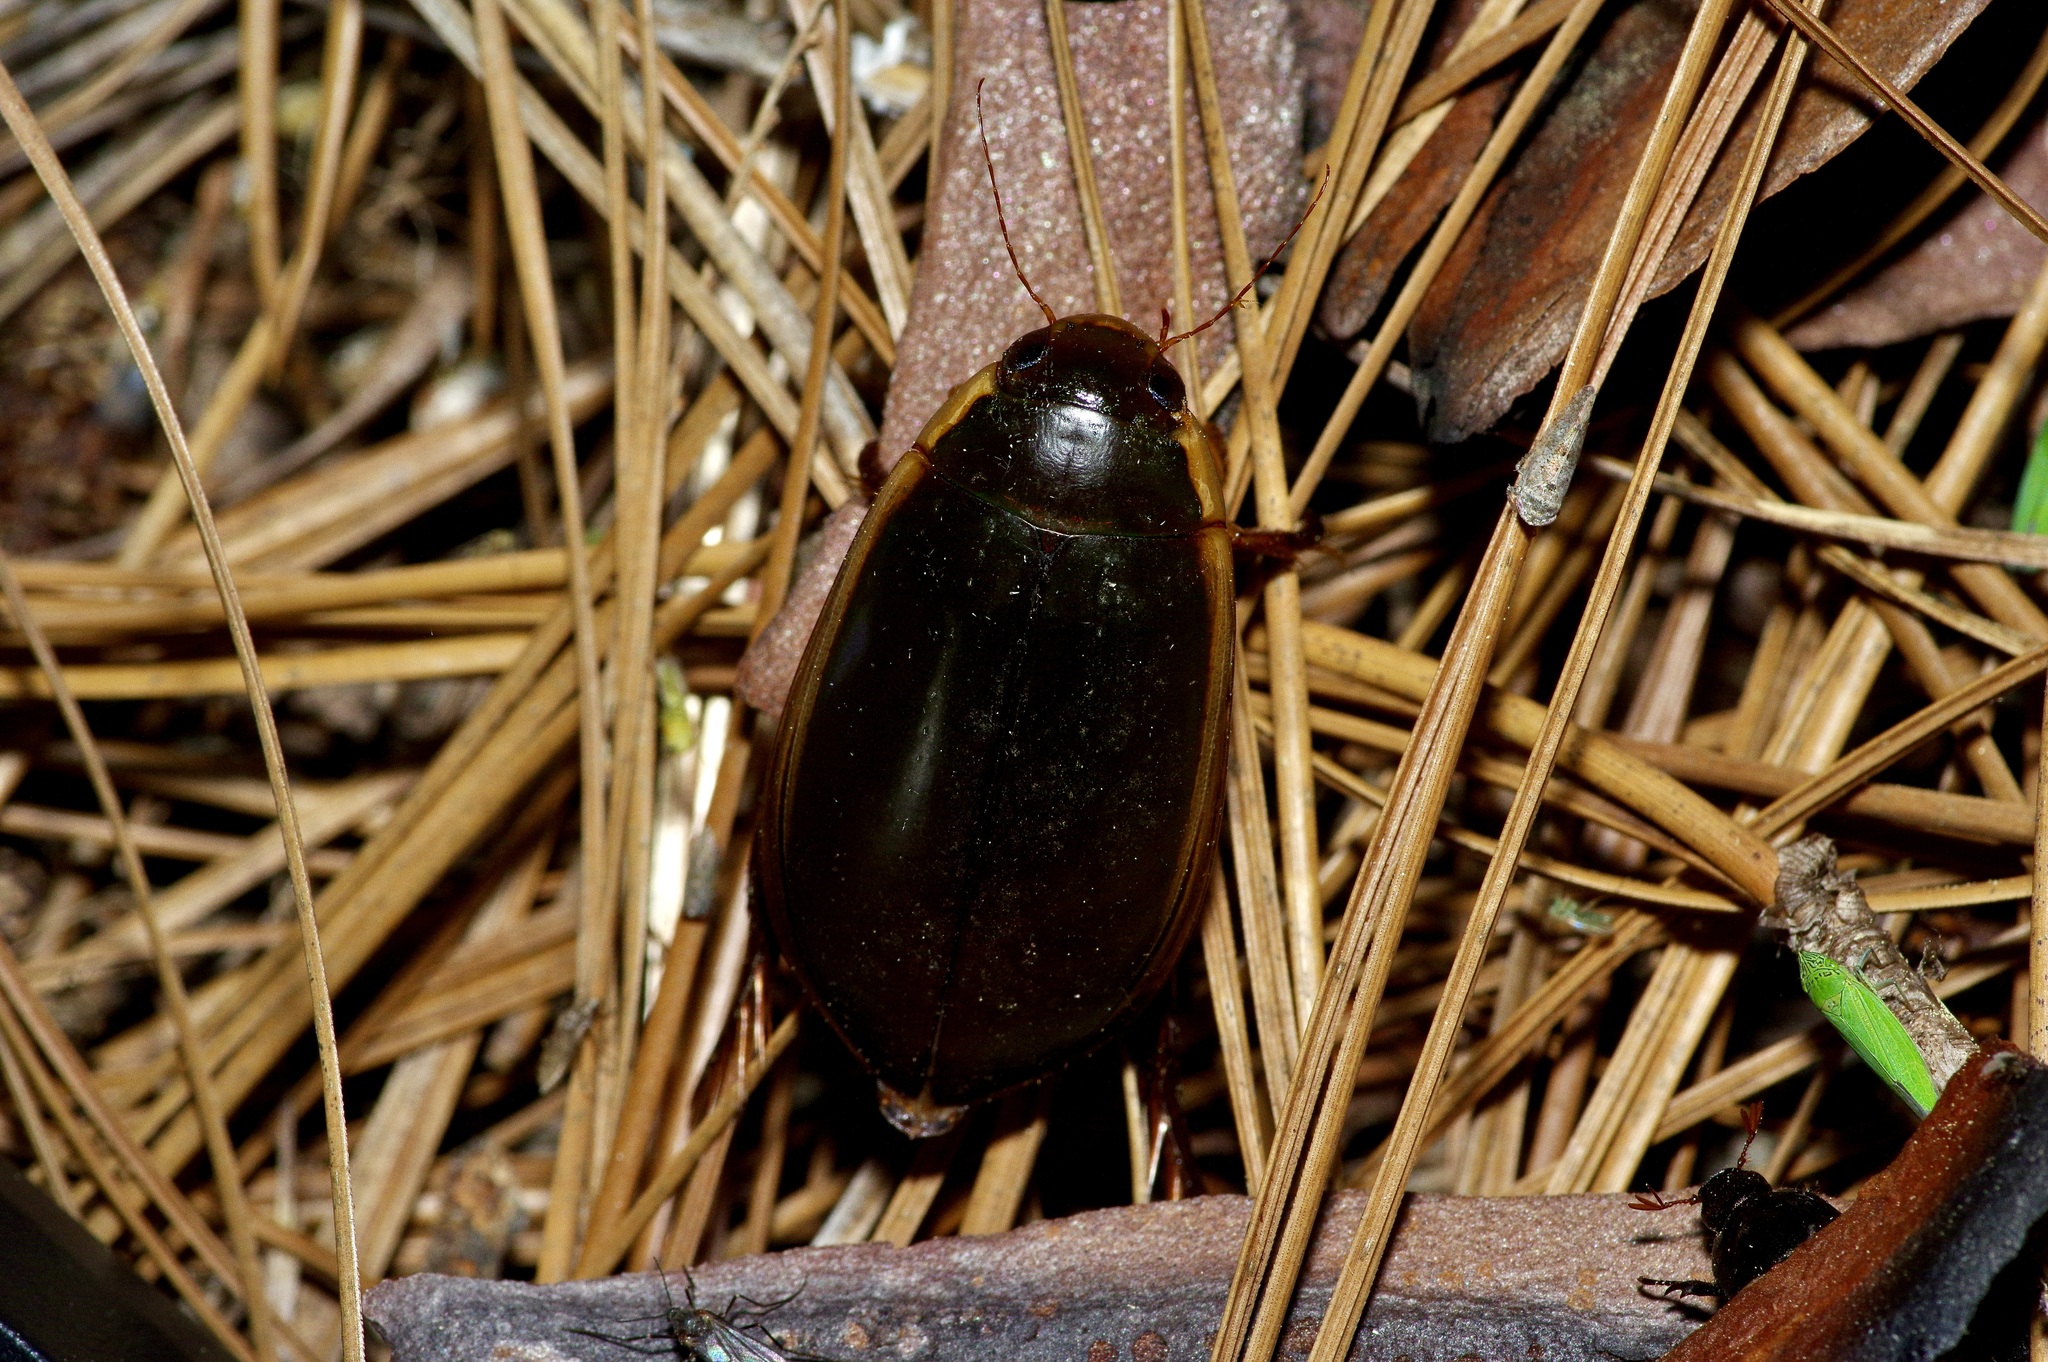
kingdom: Animalia
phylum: Arthropoda
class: Insecta
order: Coleoptera
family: Dytiscidae
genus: Cybister
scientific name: Cybister fimbriolatus
